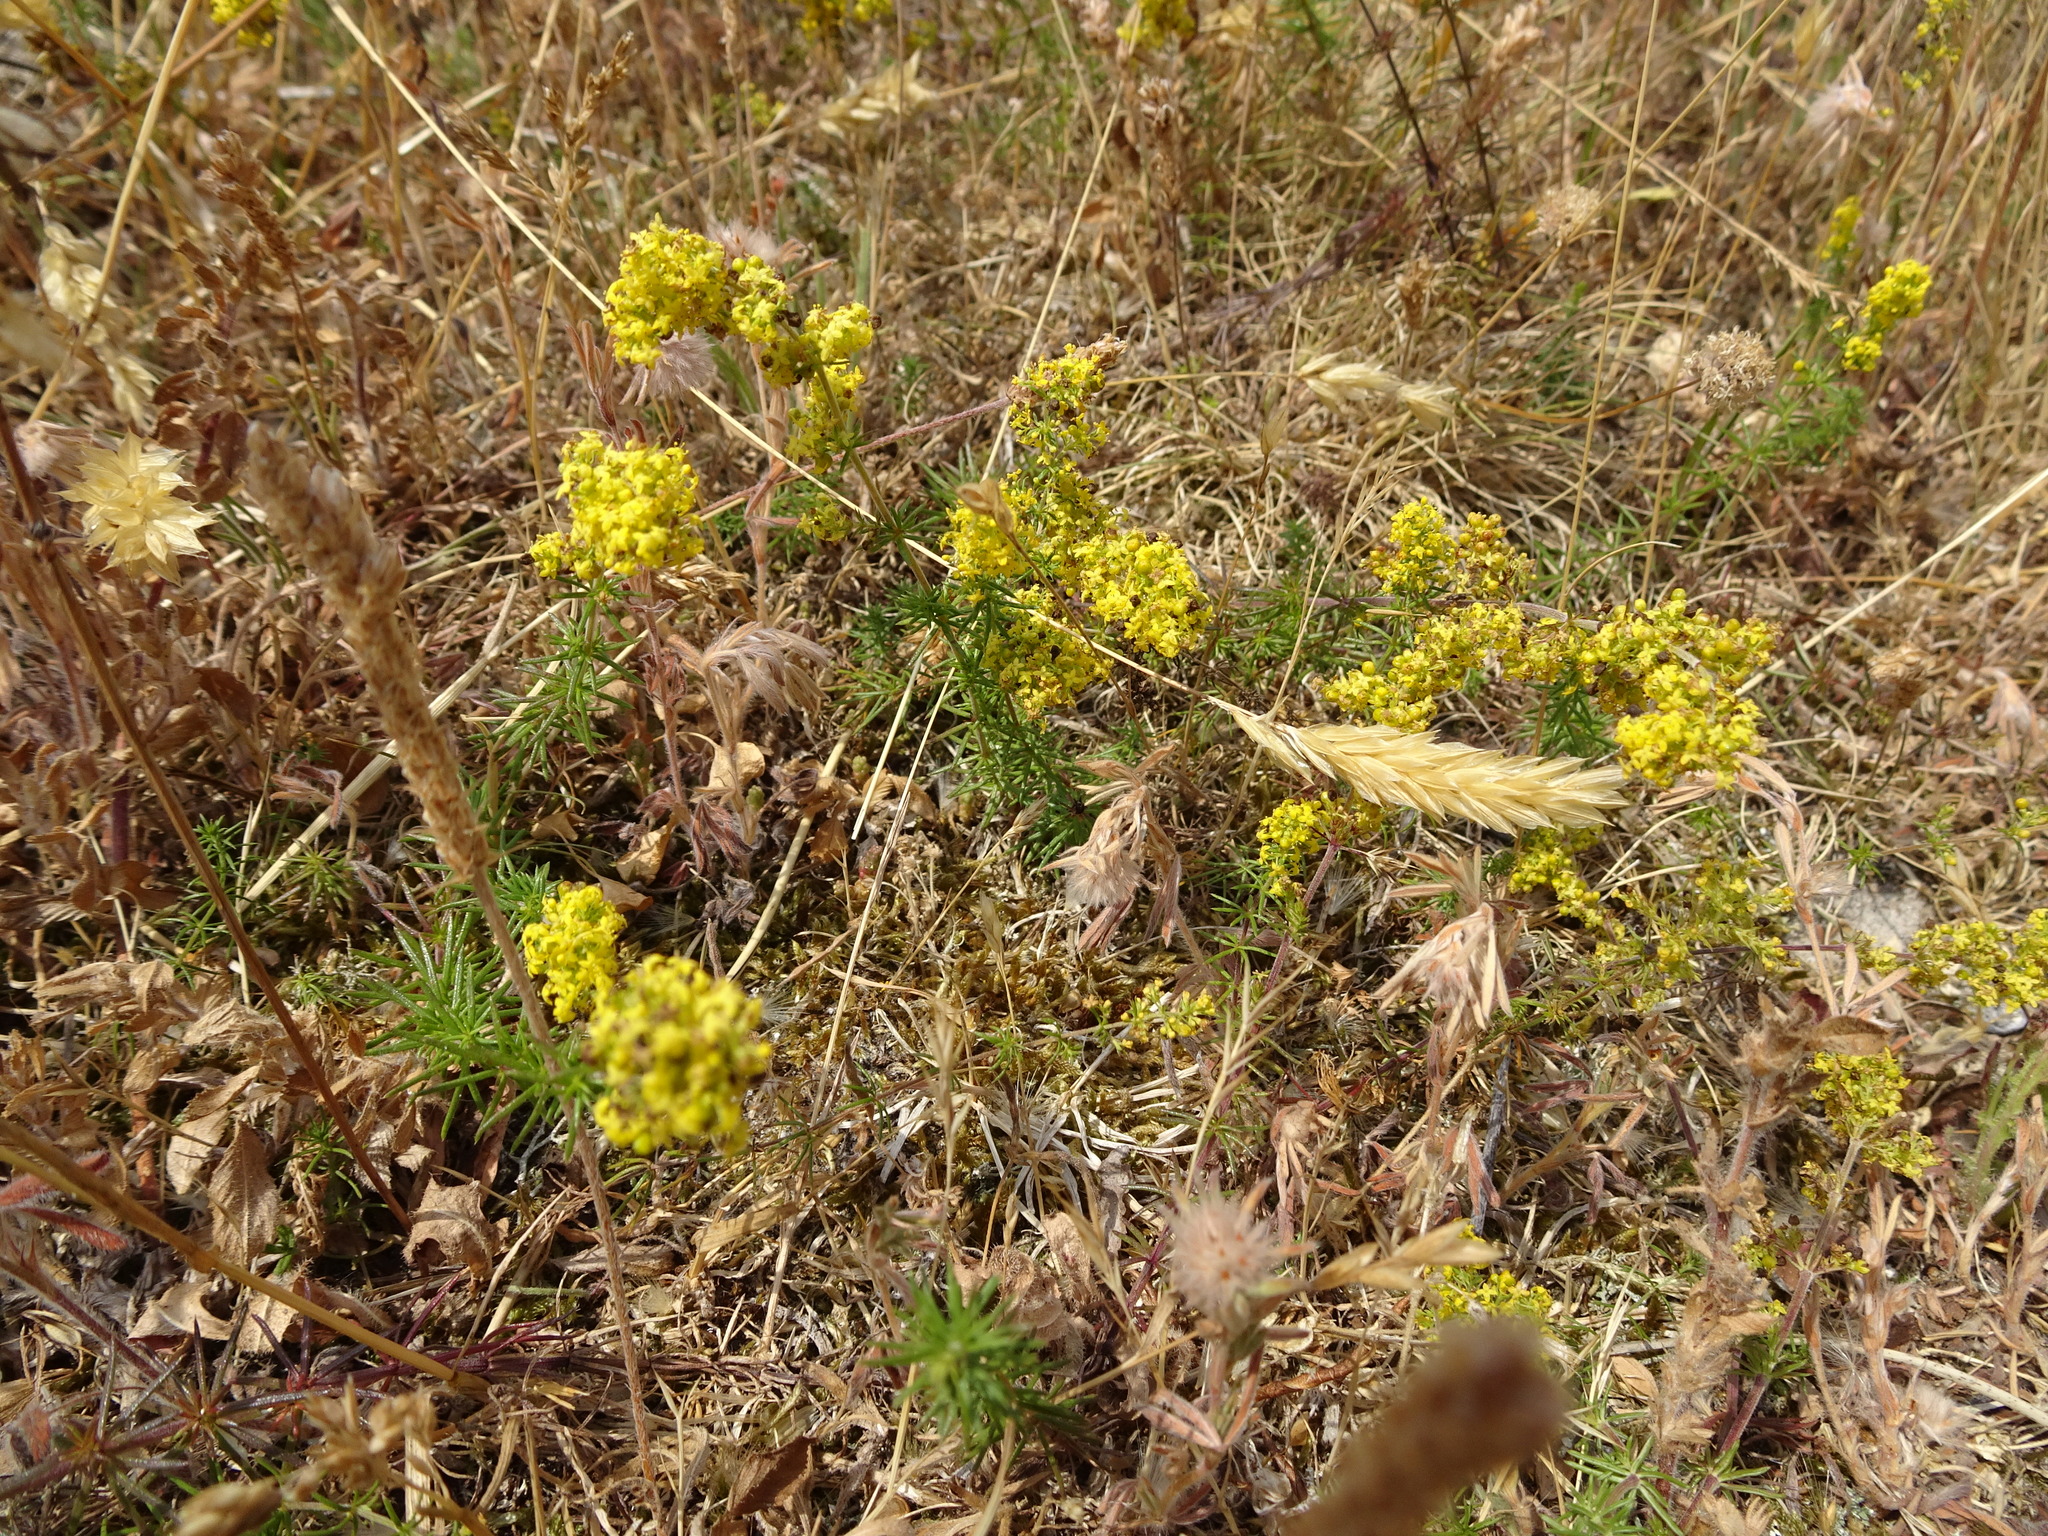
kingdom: Plantae
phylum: Tracheophyta
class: Magnoliopsida
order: Gentianales
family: Rubiaceae
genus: Galium
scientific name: Galium verum
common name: Lady's bedstraw
